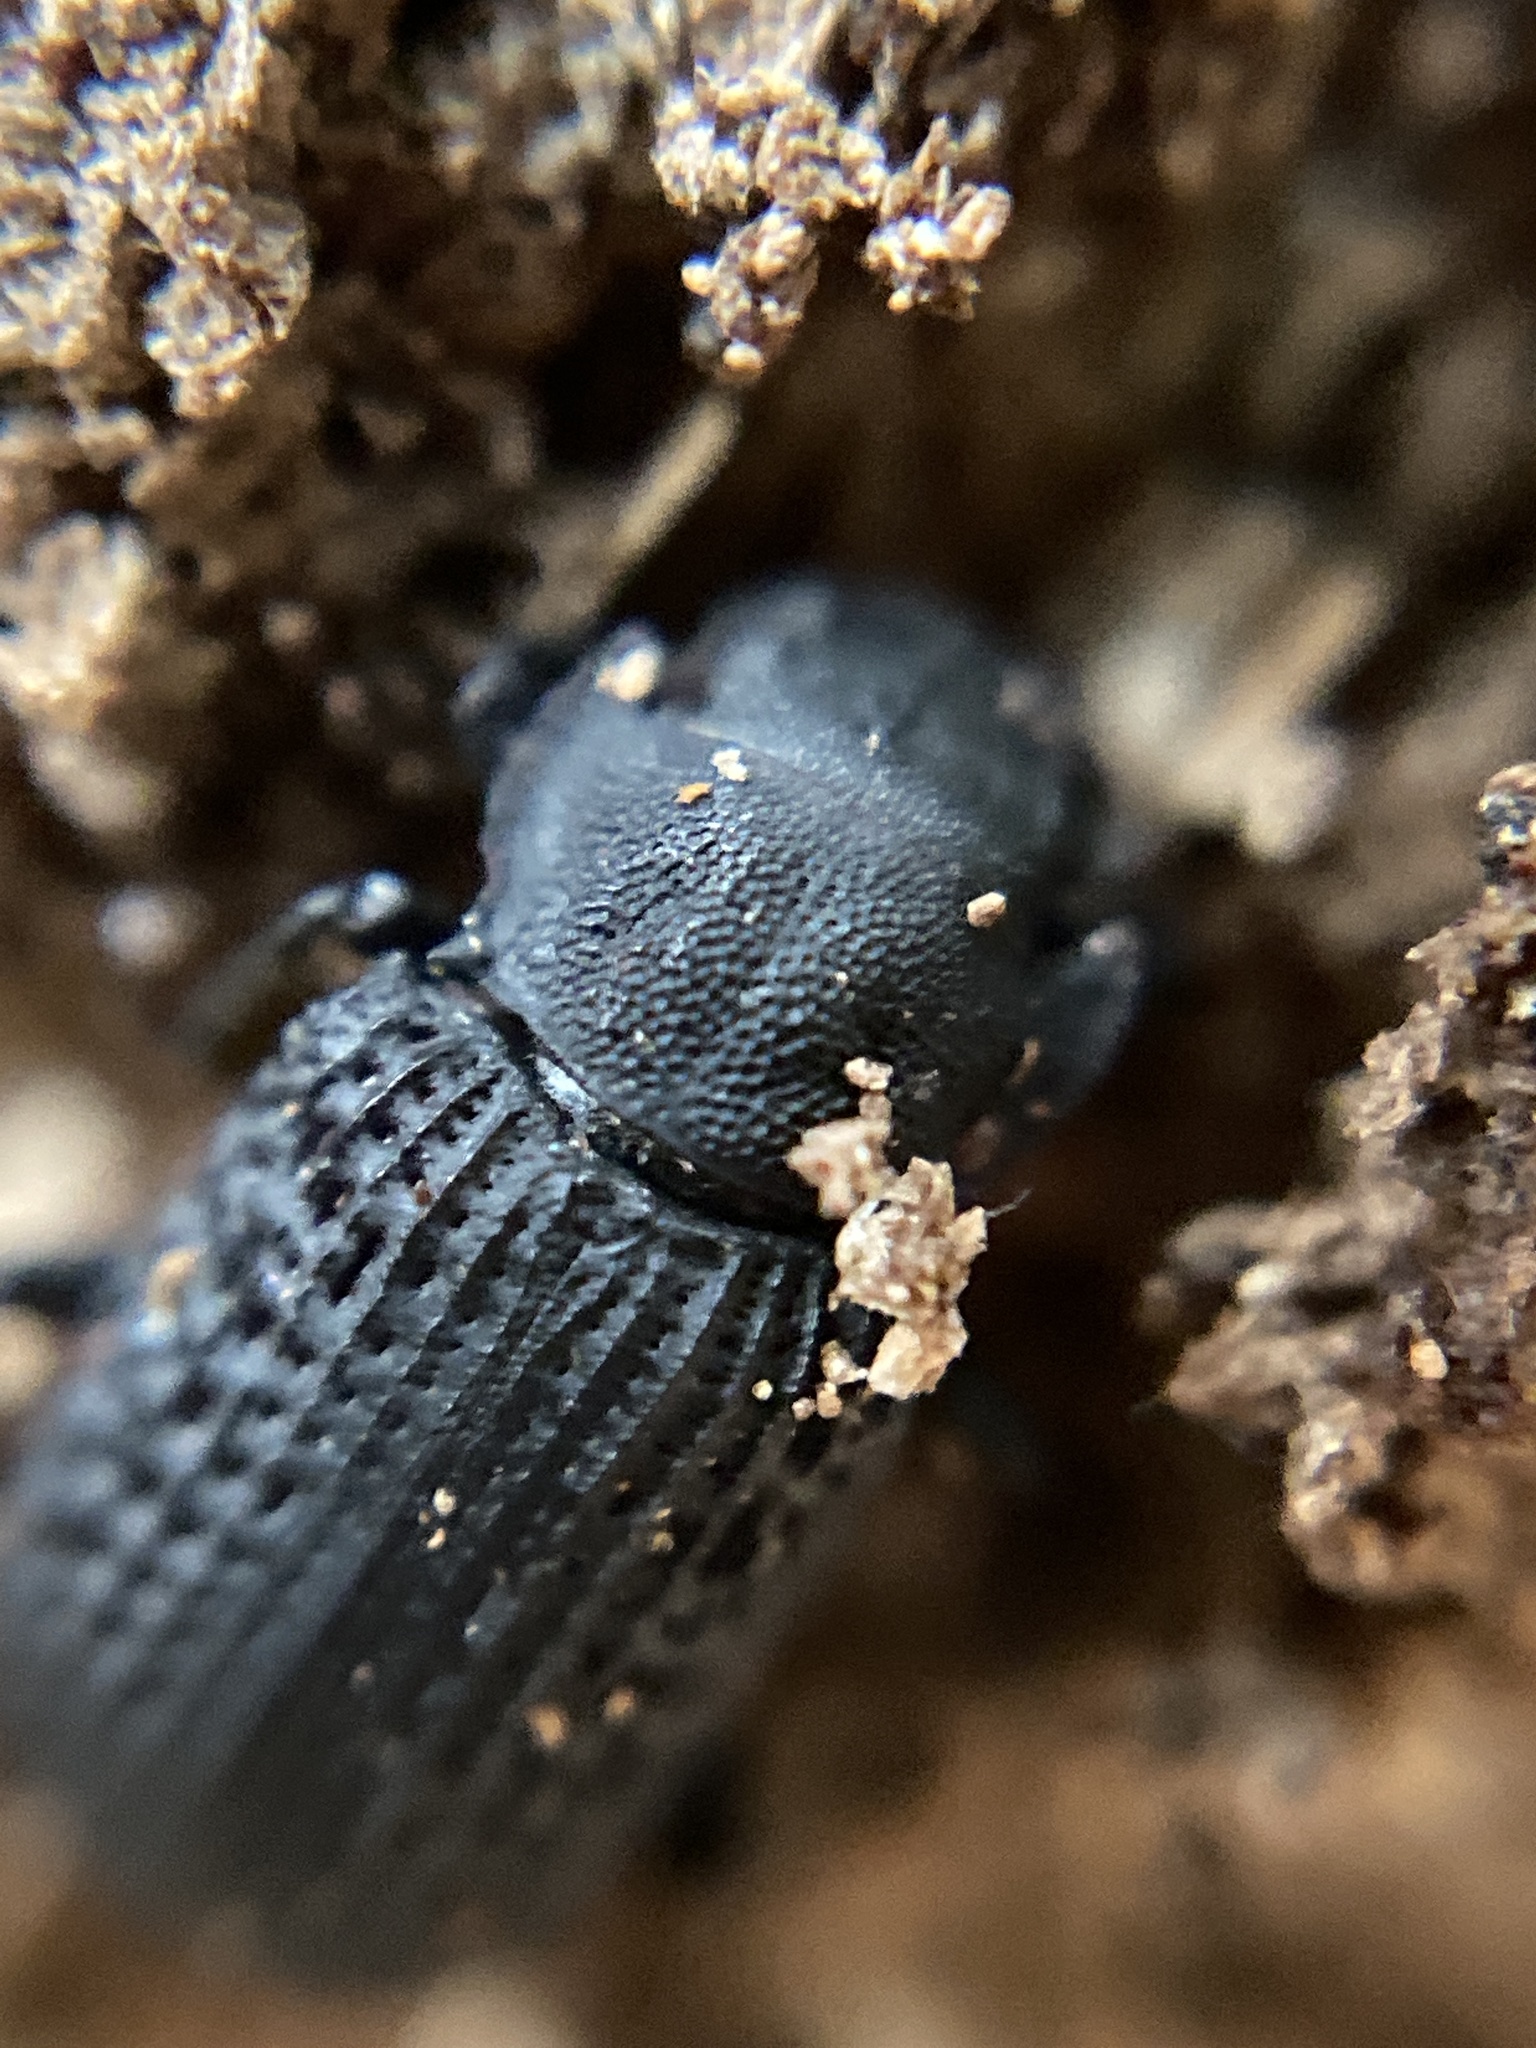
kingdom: Animalia
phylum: Arthropoda
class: Insecta
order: Coleoptera
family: Tenebrionidae
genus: Bolitophagus
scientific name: Bolitophagus reticulatus
